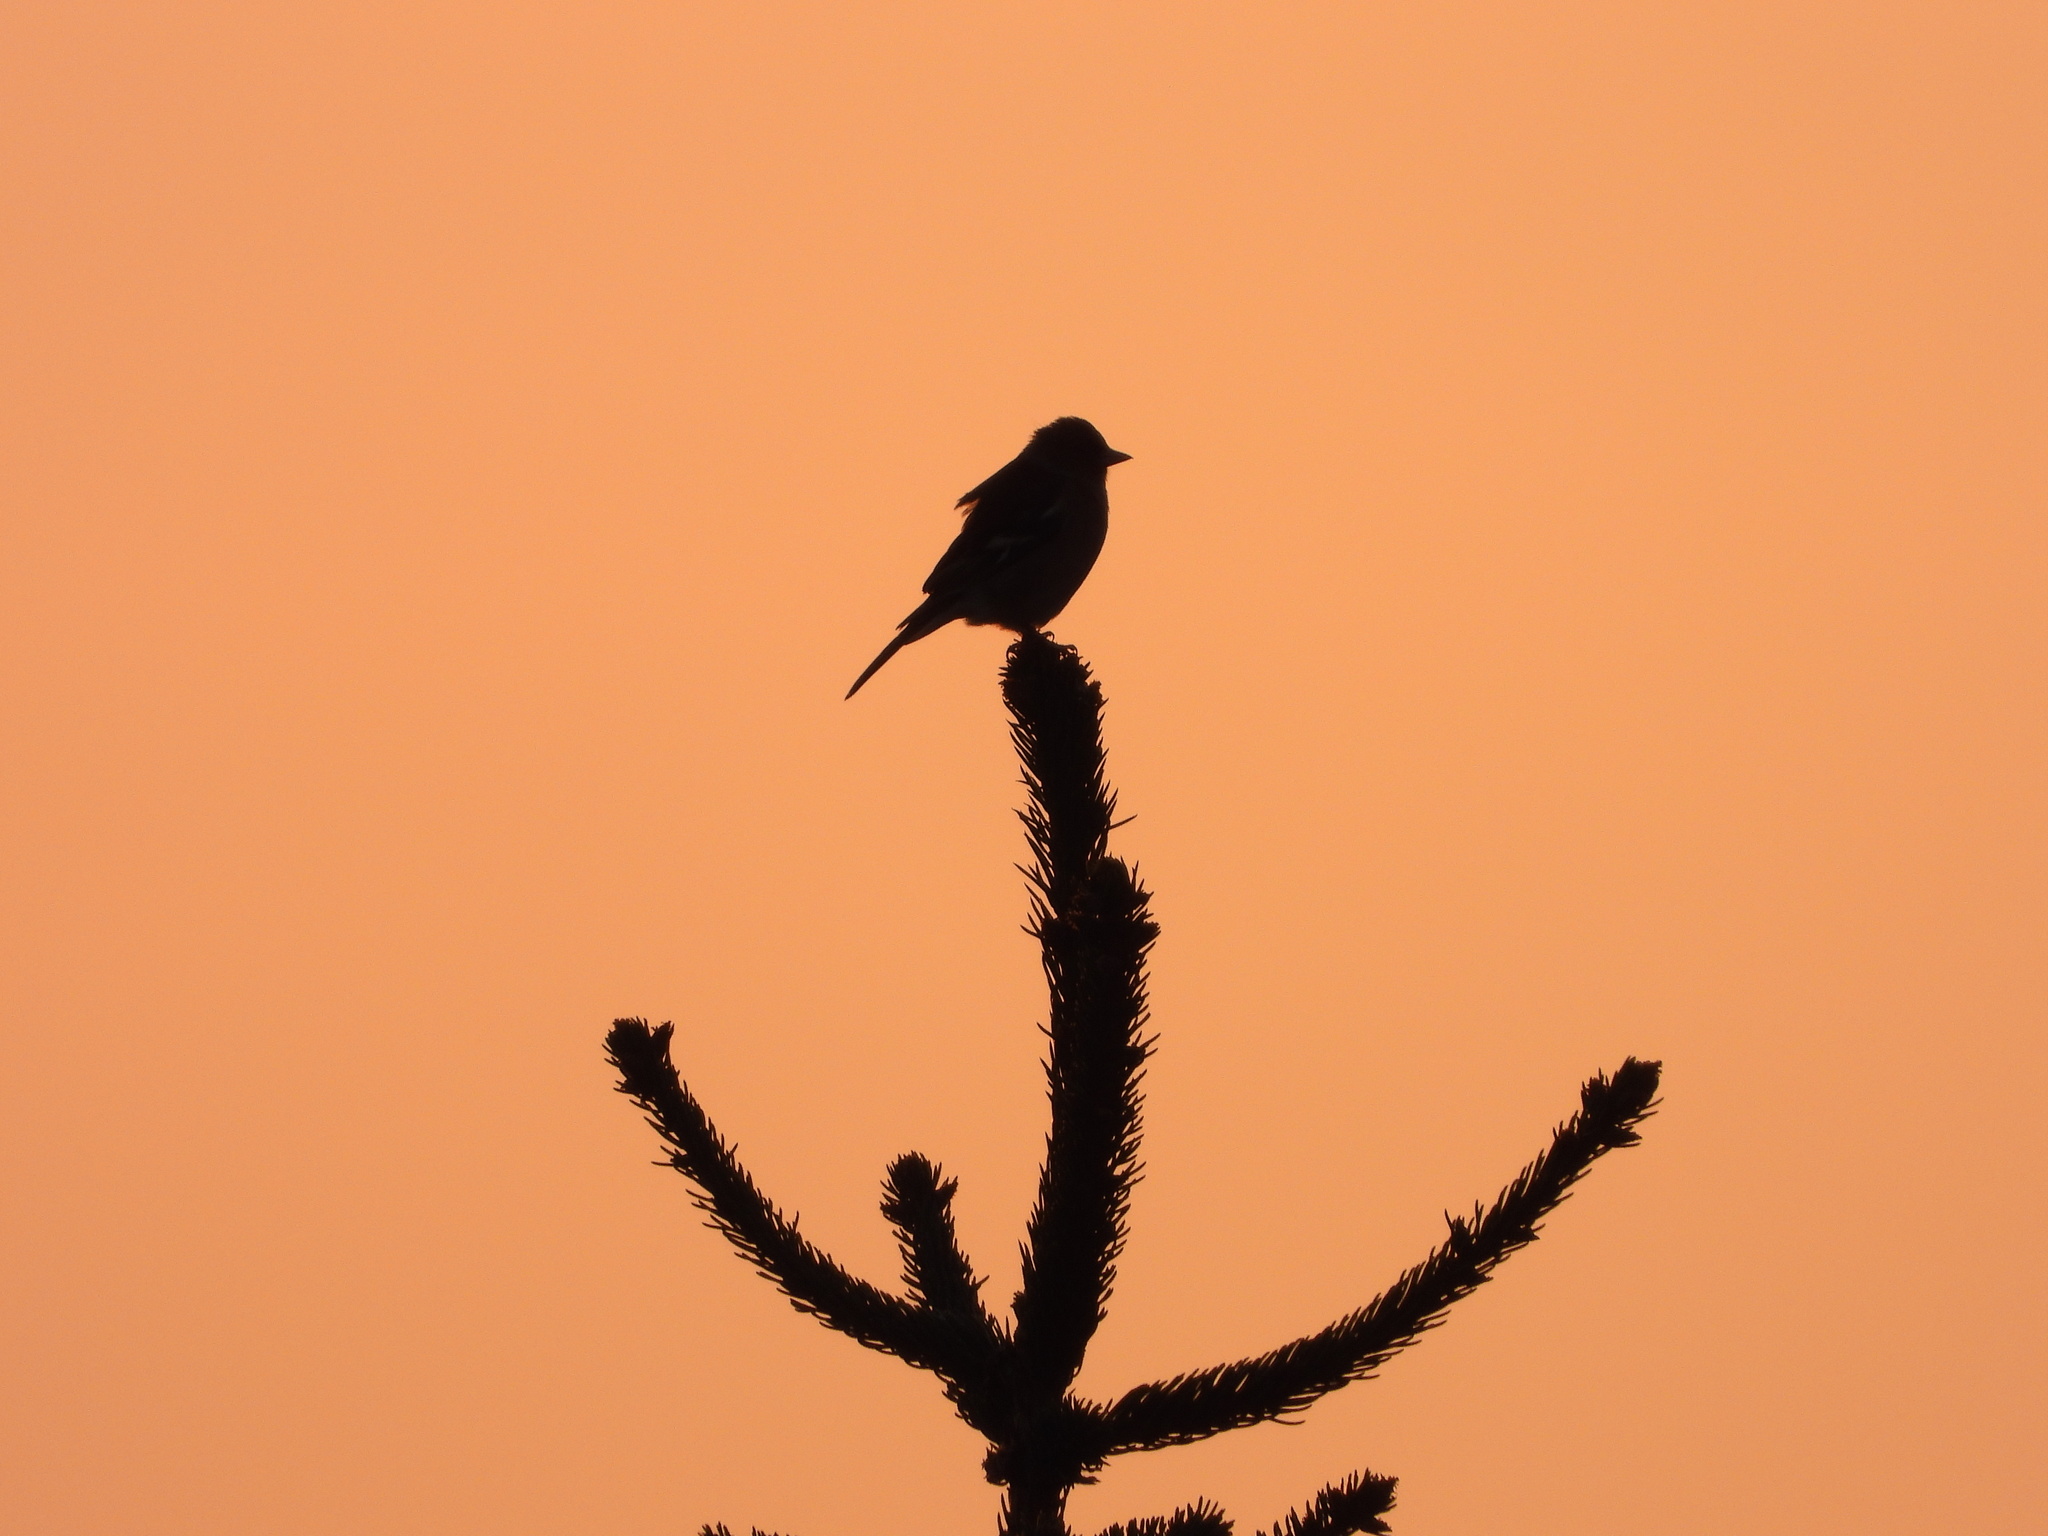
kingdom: Animalia
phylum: Chordata
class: Aves
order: Passeriformes
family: Fringillidae
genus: Fringilla
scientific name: Fringilla coelebs
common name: Common chaffinch
